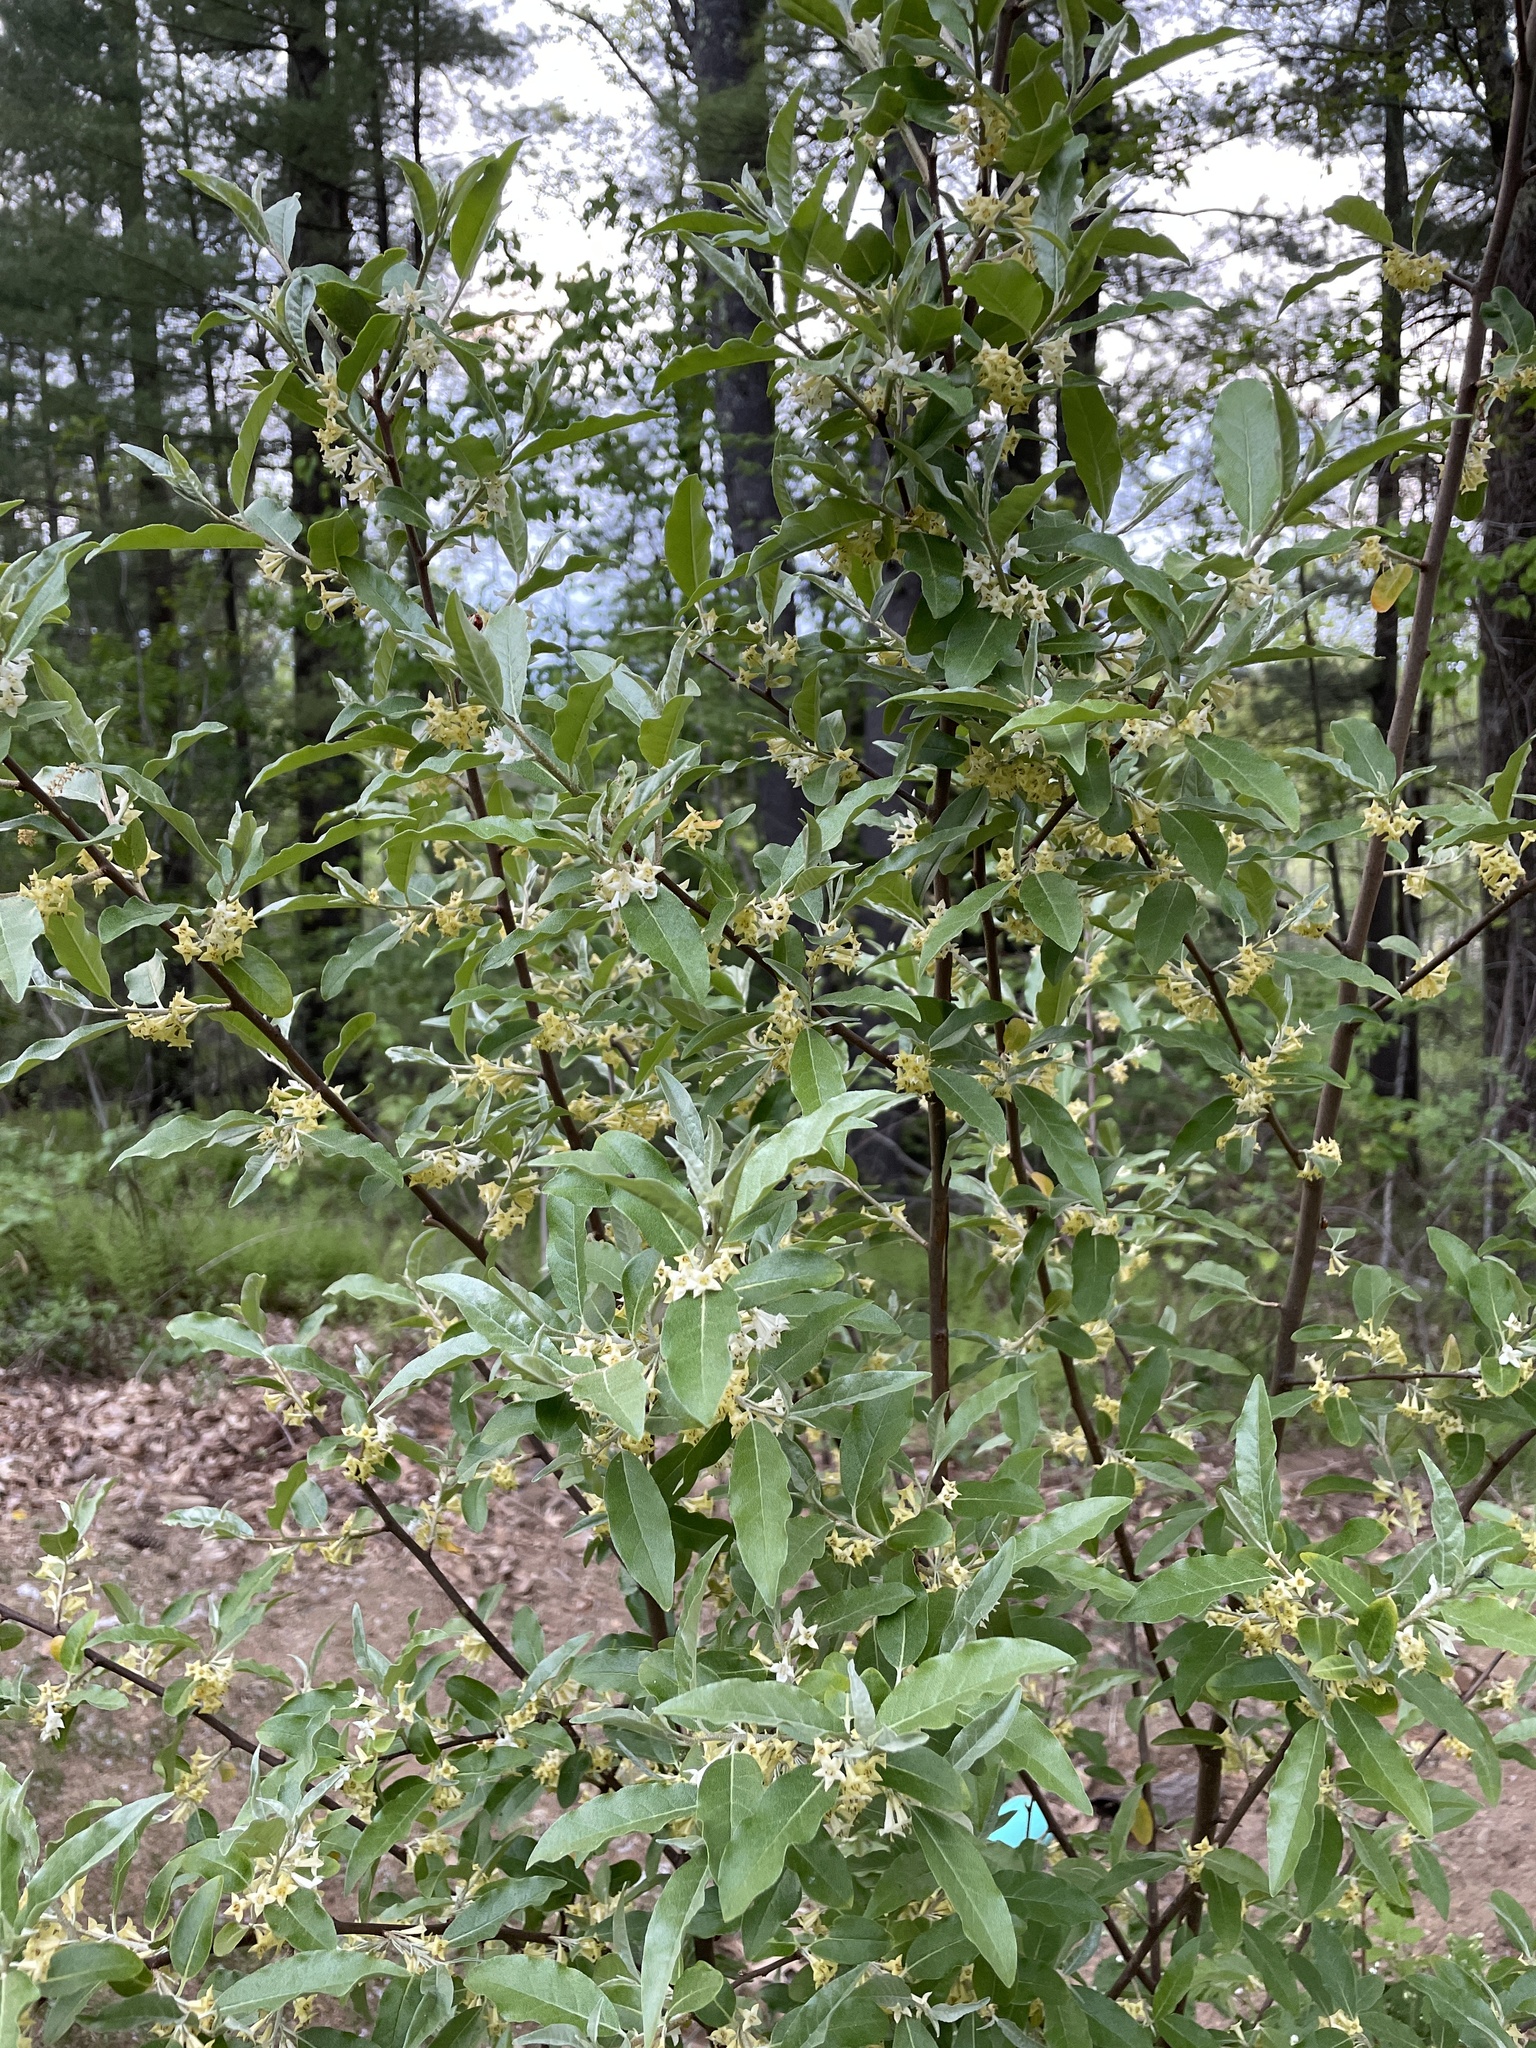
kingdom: Plantae
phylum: Tracheophyta
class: Magnoliopsida
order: Rosales
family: Elaeagnaceae
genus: Elaeagnus
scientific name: Elaeagnus umbellata
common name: Autumn olive
